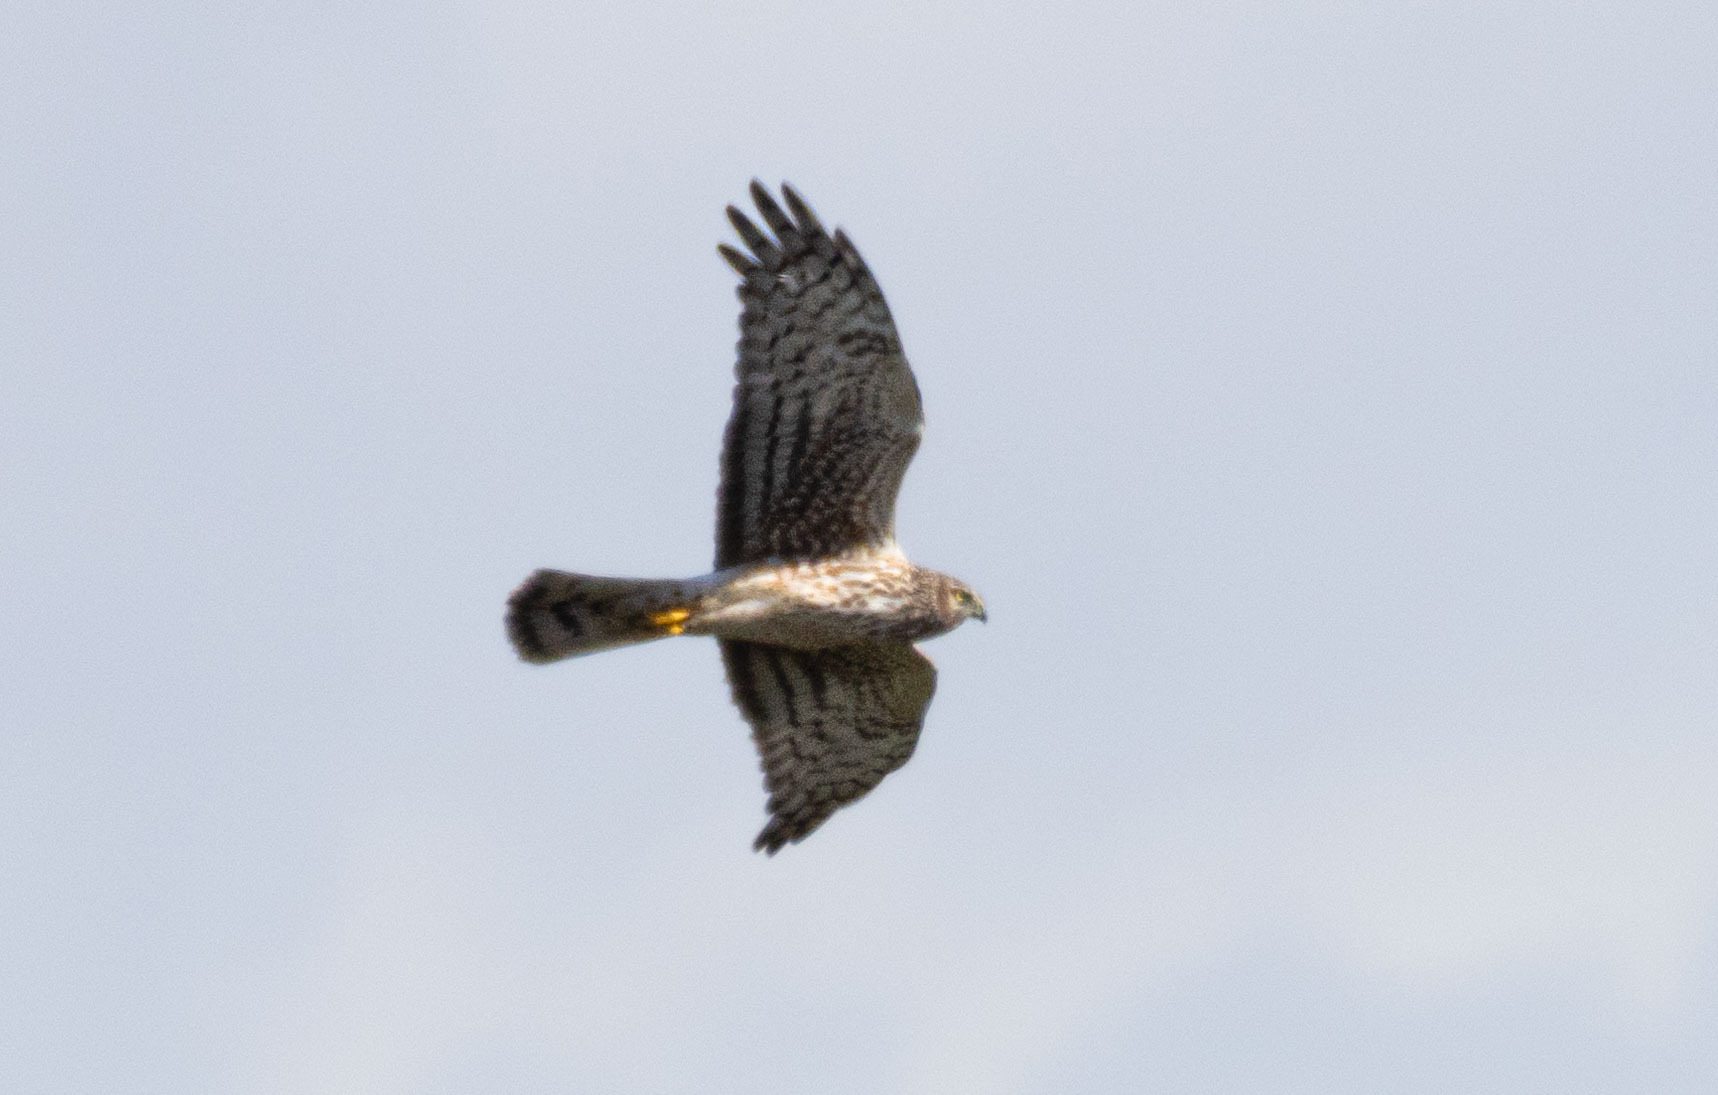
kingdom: Animalia
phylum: Chordata
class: Aves
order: Accipitriformes
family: Accipitridae
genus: Circus
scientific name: Circus cyaneus
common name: Hen harrier
